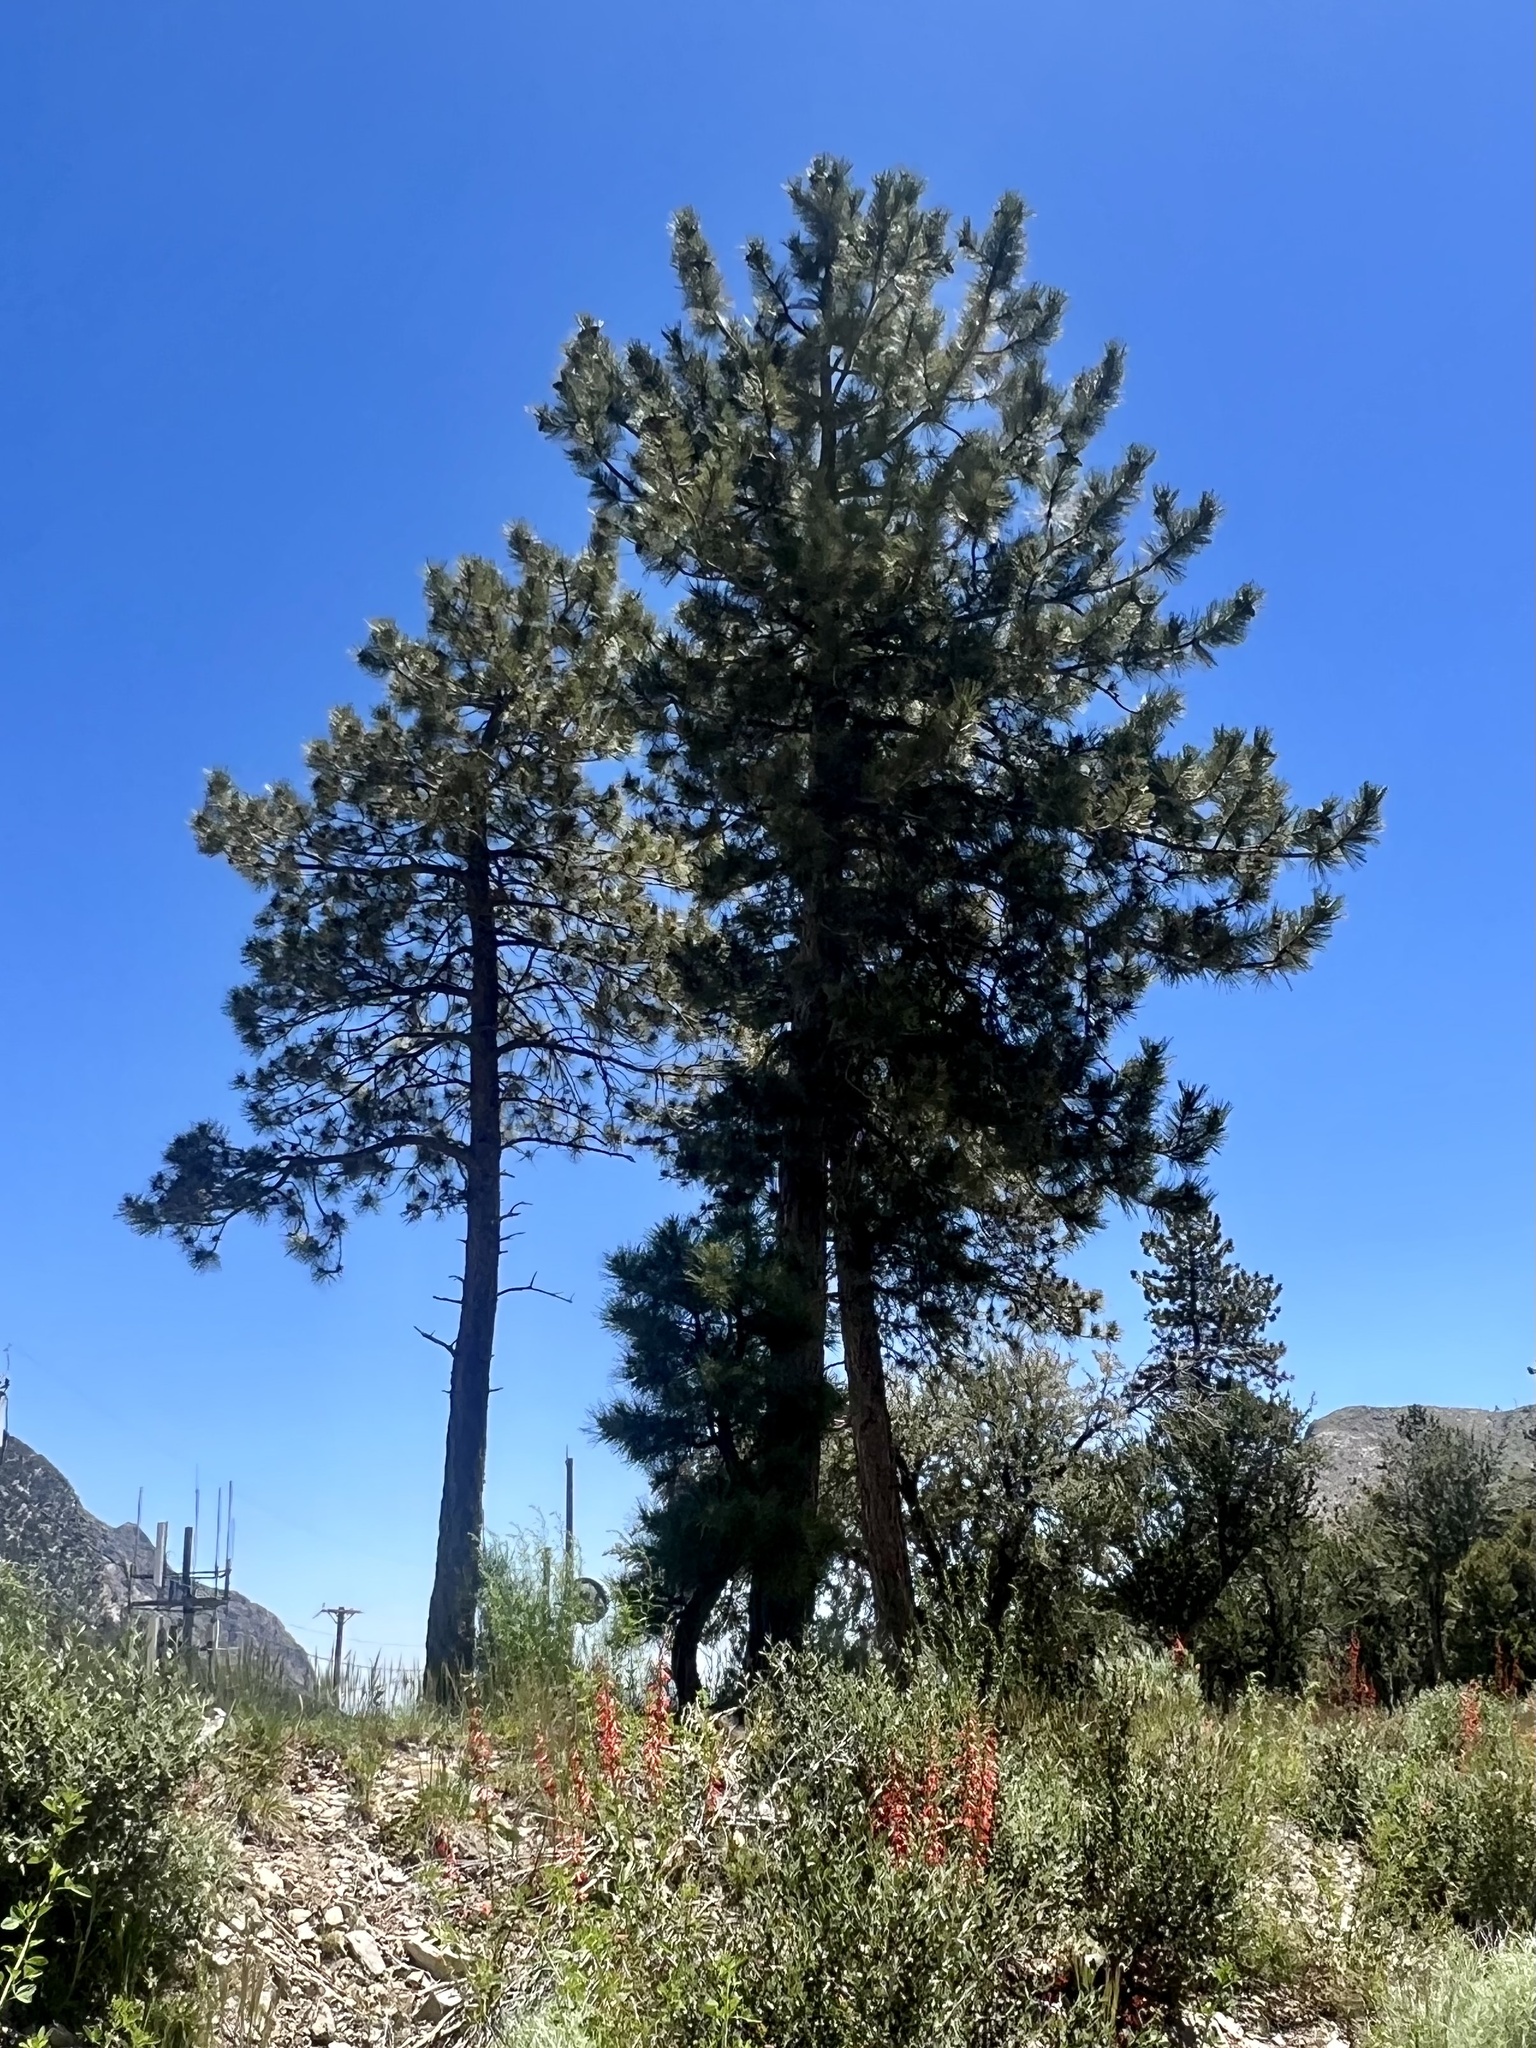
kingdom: Plantae
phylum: Tracheophyta
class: Pinopsida
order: Pinales
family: Pinaceae
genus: Pinus
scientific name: Pinus ponderosa
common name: Western yellow-pine
